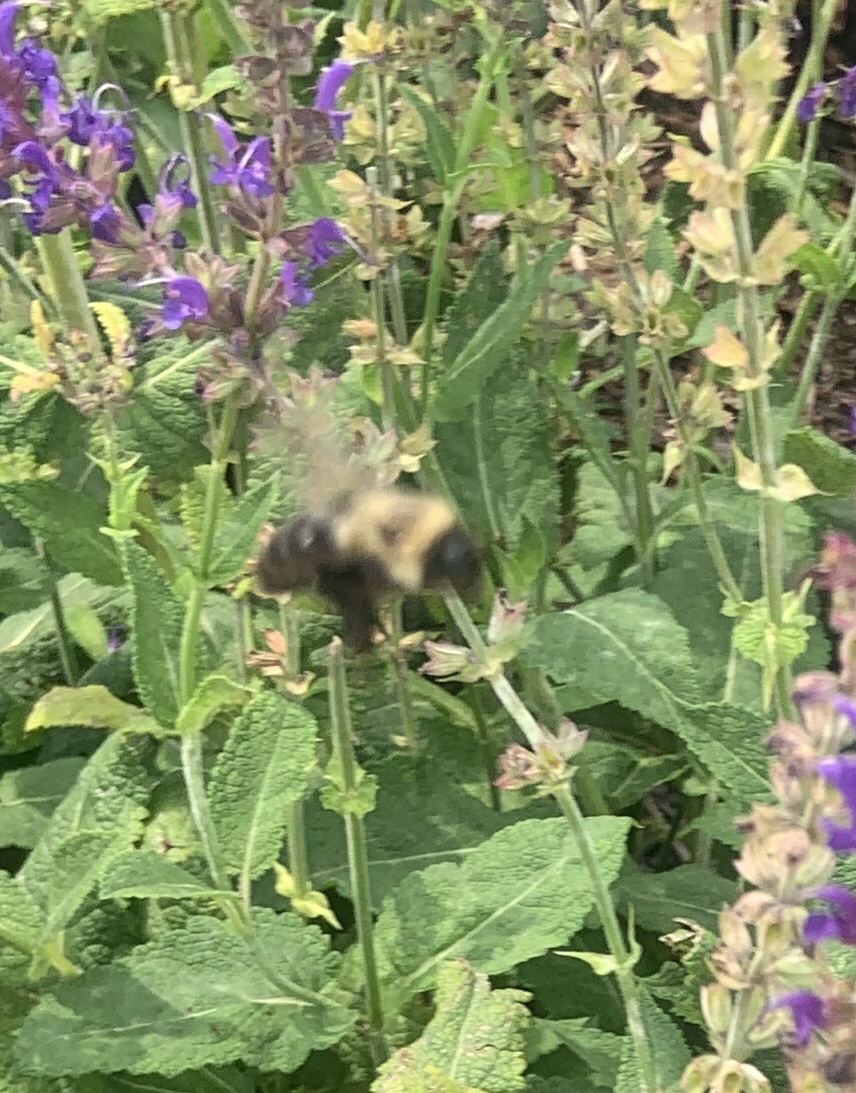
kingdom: Animalia
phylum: Arthropoda
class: Insecta
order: Hymenoptera
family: Apidae
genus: Bombus
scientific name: Bombus impatiens
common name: Common eastern bumble bee
